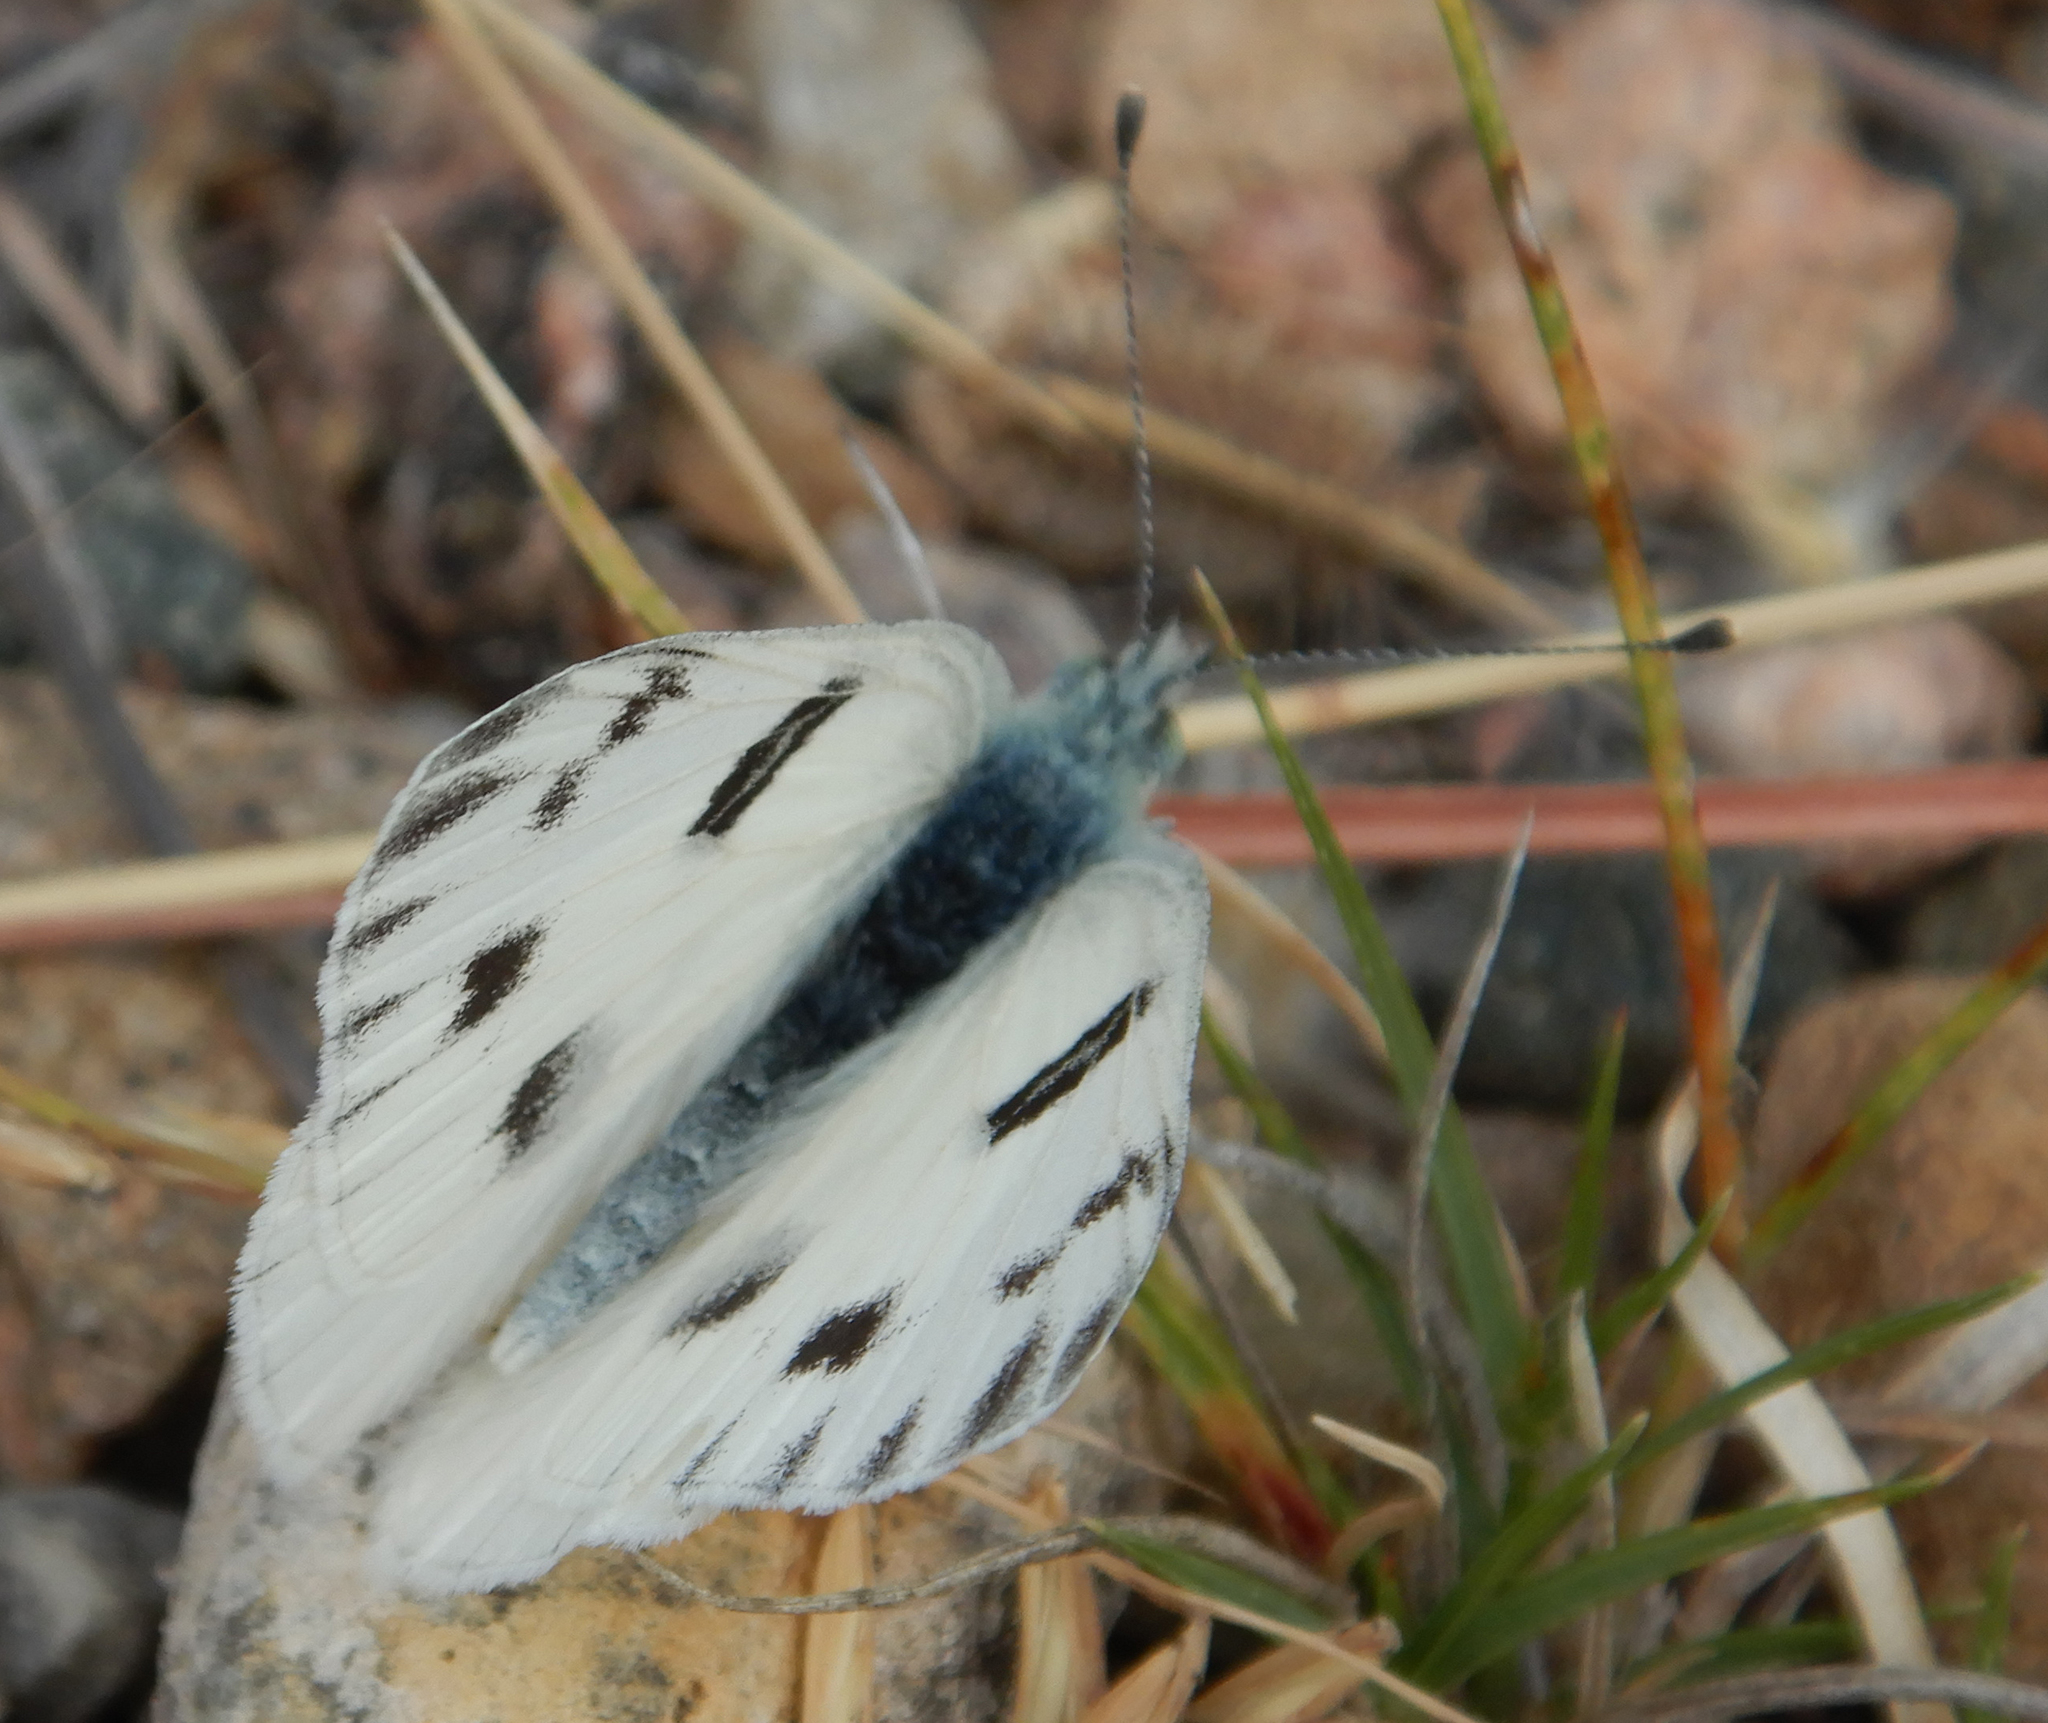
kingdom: Animalia
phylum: Arthropoda
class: Insecta
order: Lepidoptera
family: Pieridae
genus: Pontia
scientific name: Pontia protodice
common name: Checkered white
